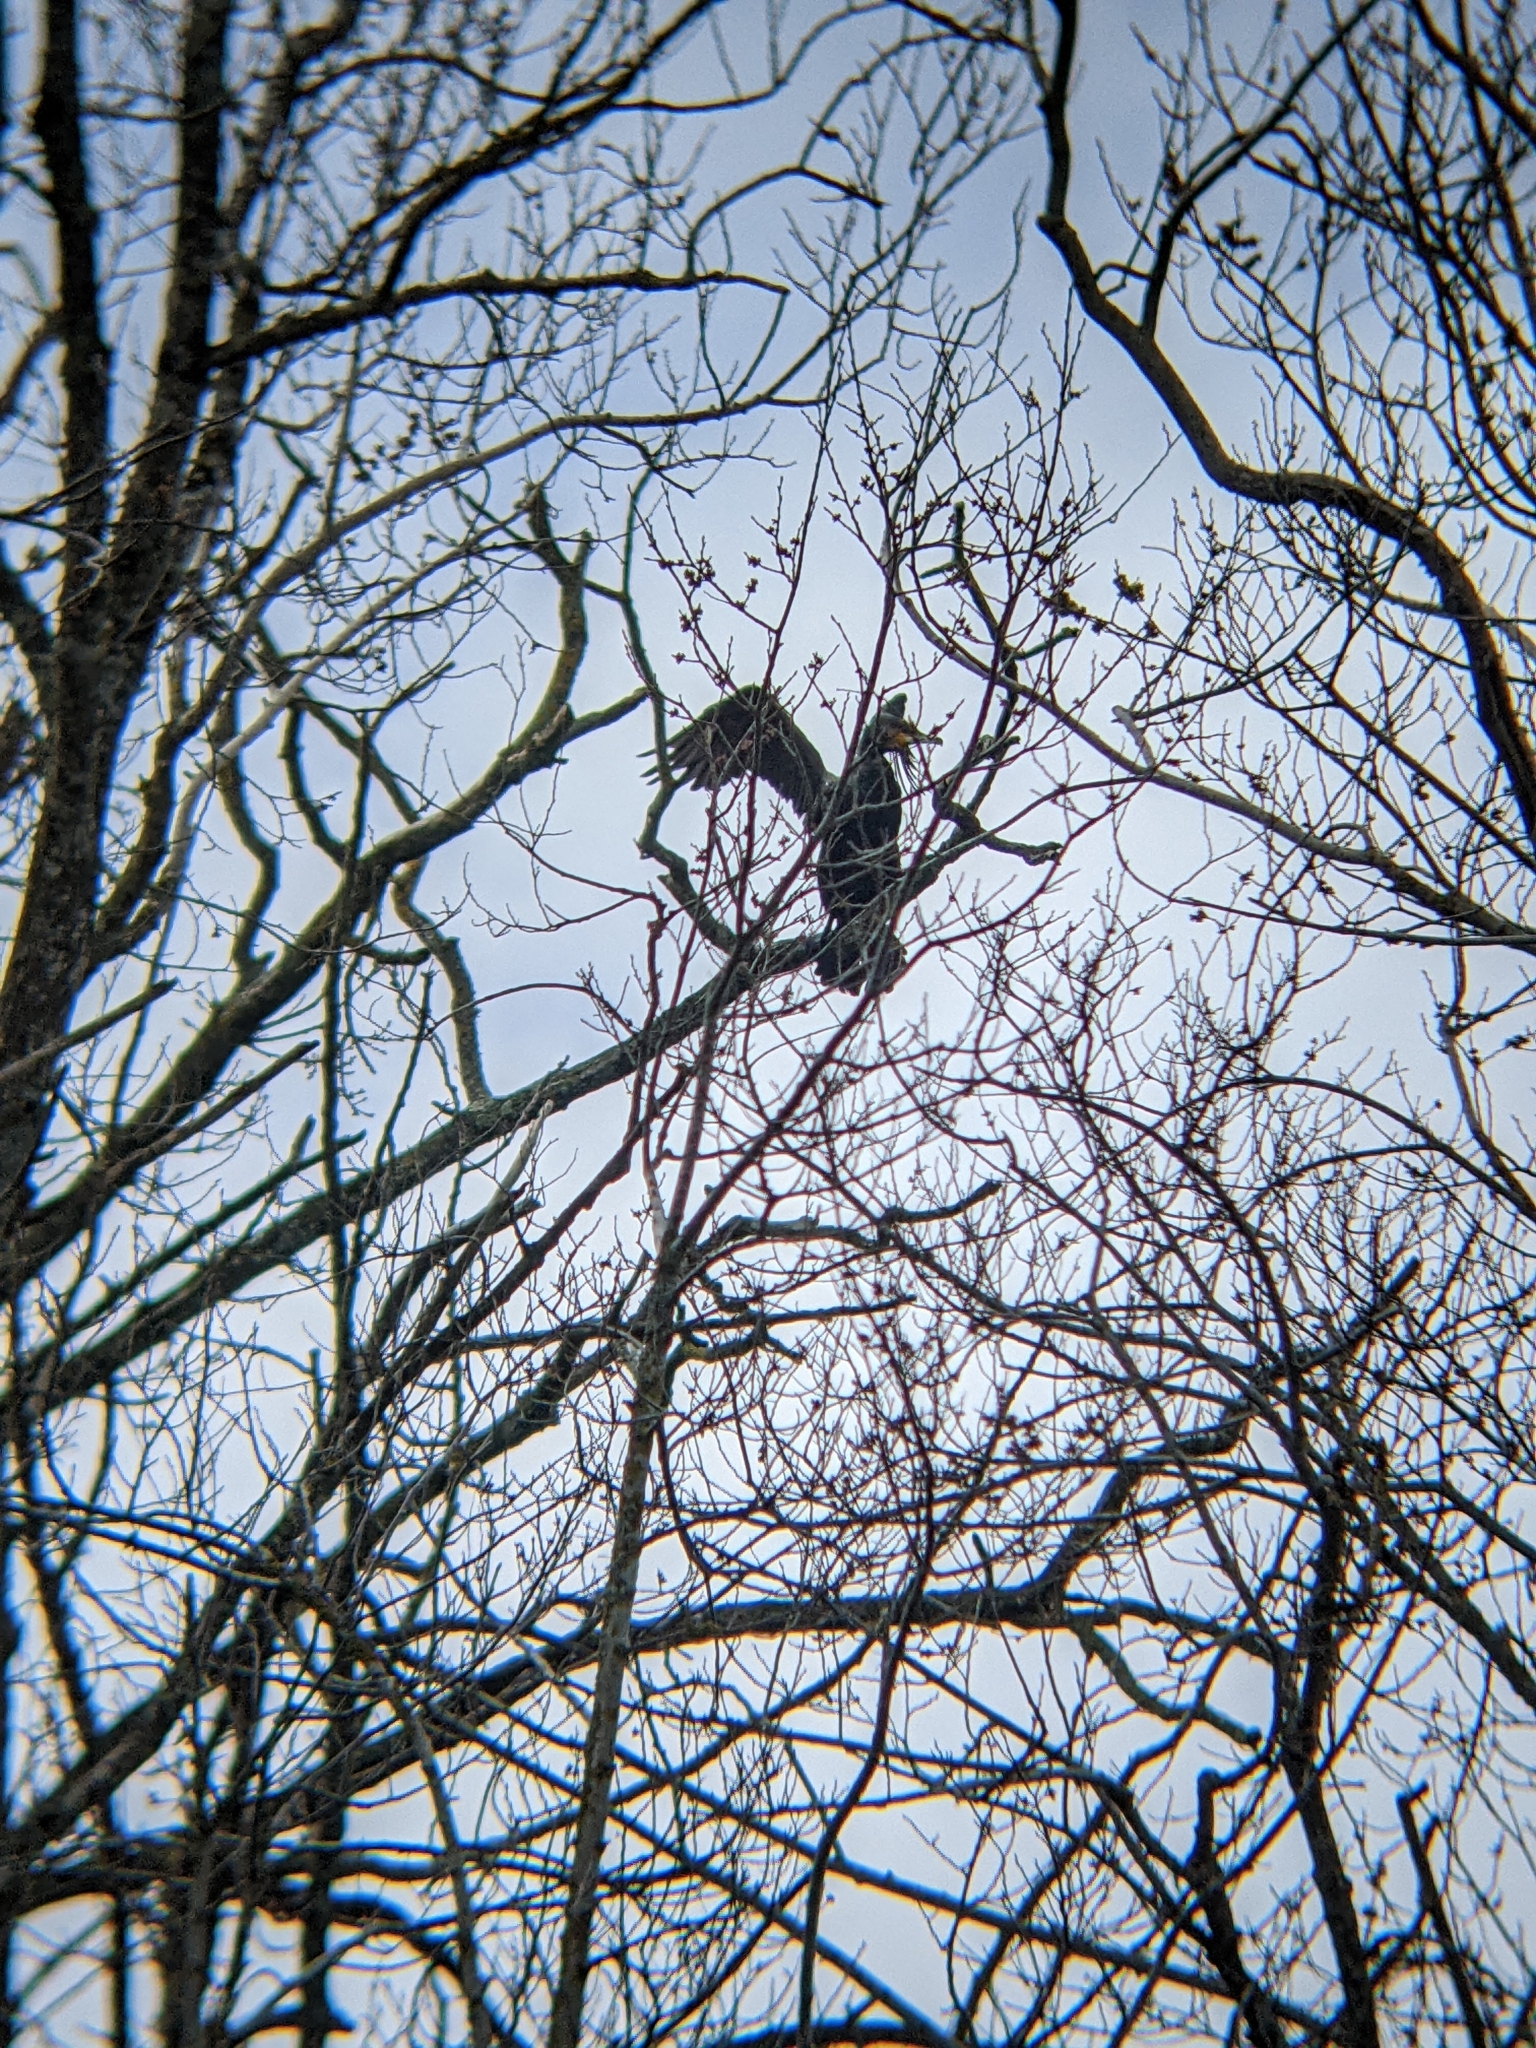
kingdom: Animalia
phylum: Chordata
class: Aves
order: Suliformes
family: Phalacrocoracidae
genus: Phalacrocorax
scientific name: Phalacrocorax carbo
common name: Great cormorant
